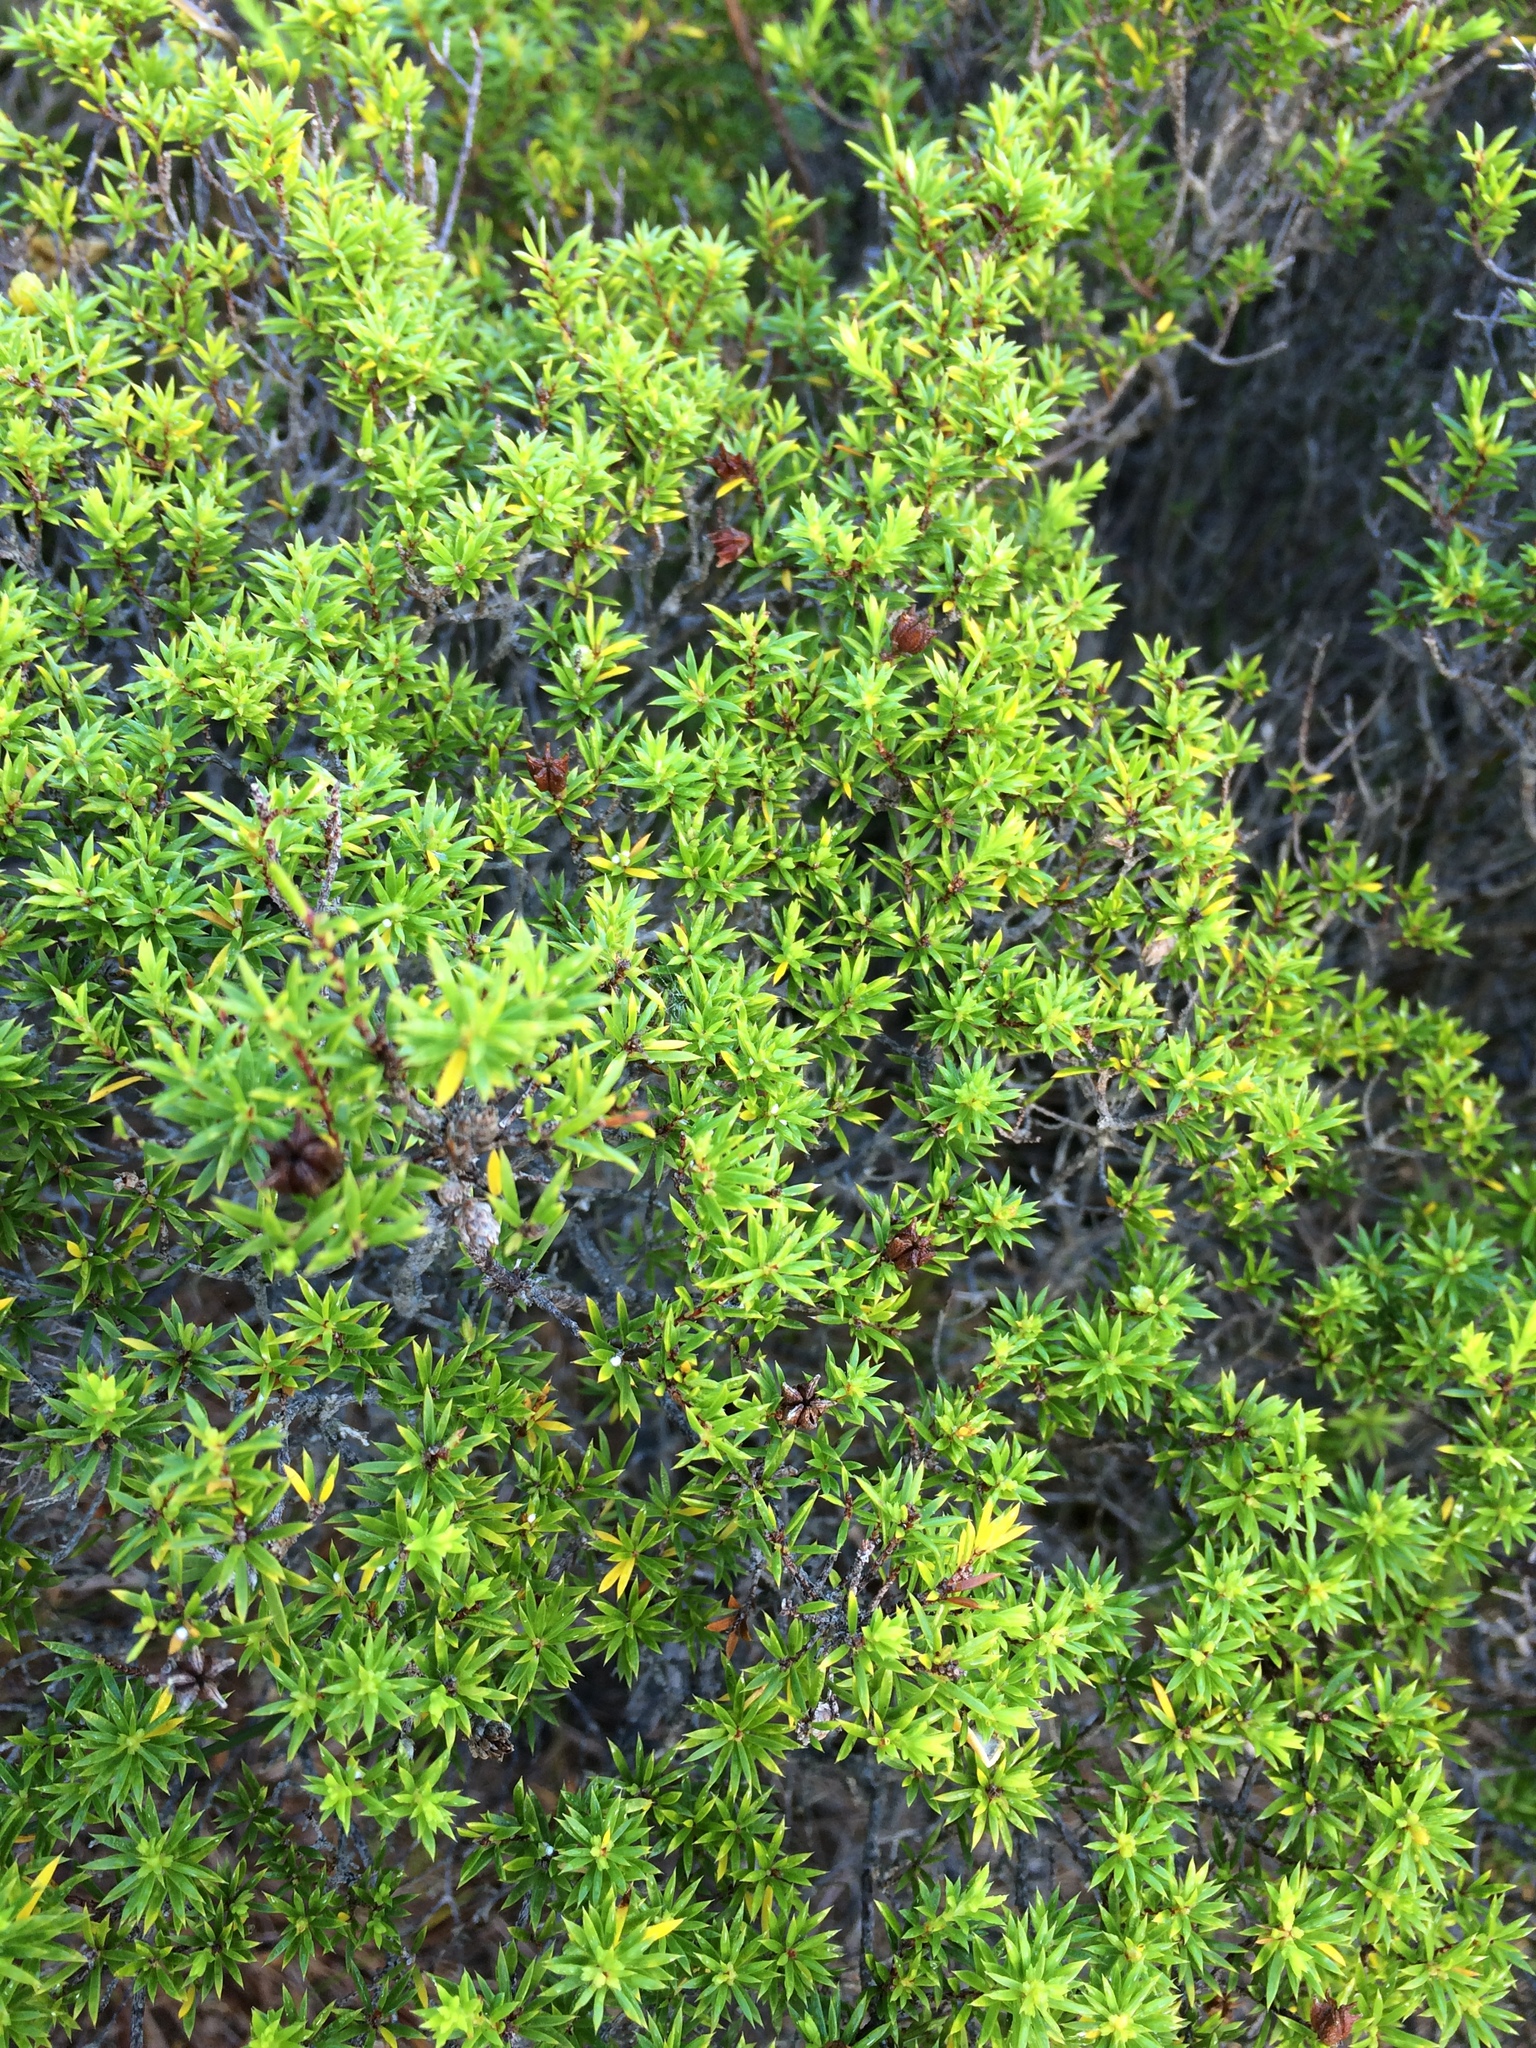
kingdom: Plantae
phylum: Tracheophyta
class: Magnoliopsida
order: Sapindales
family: Rutaceae
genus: Coleonema
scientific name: Coleonema album
